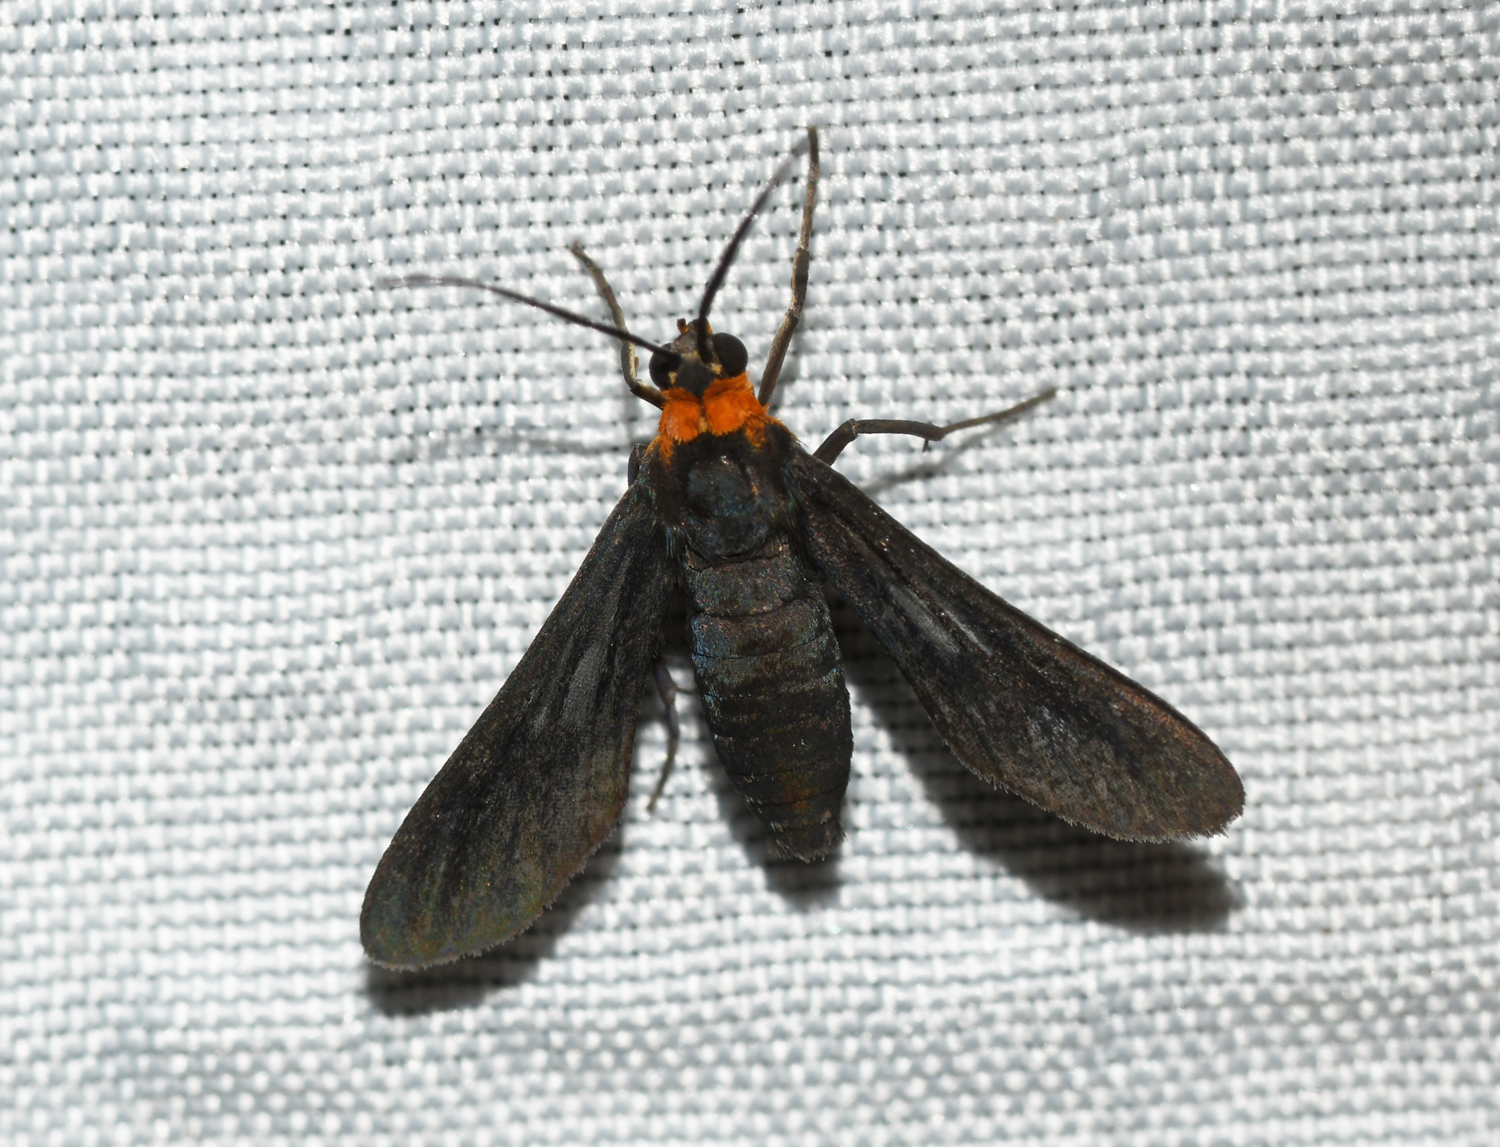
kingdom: Animalia
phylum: Arthropoda
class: Insecta
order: Lepidoptera
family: Erebidae
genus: Rhynchopyga
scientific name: Rhynchopyga flavicollis
